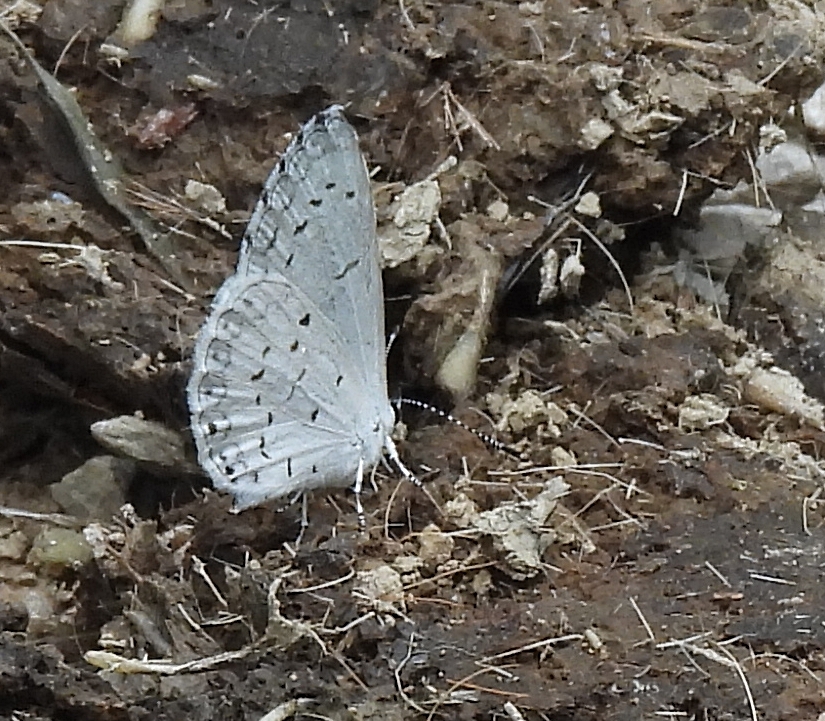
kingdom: Animalia
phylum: Arthropoda
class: Insecta
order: Lepidoptera
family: Lycaenidae
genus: Cyaniris
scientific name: Cyaniris neglecta
